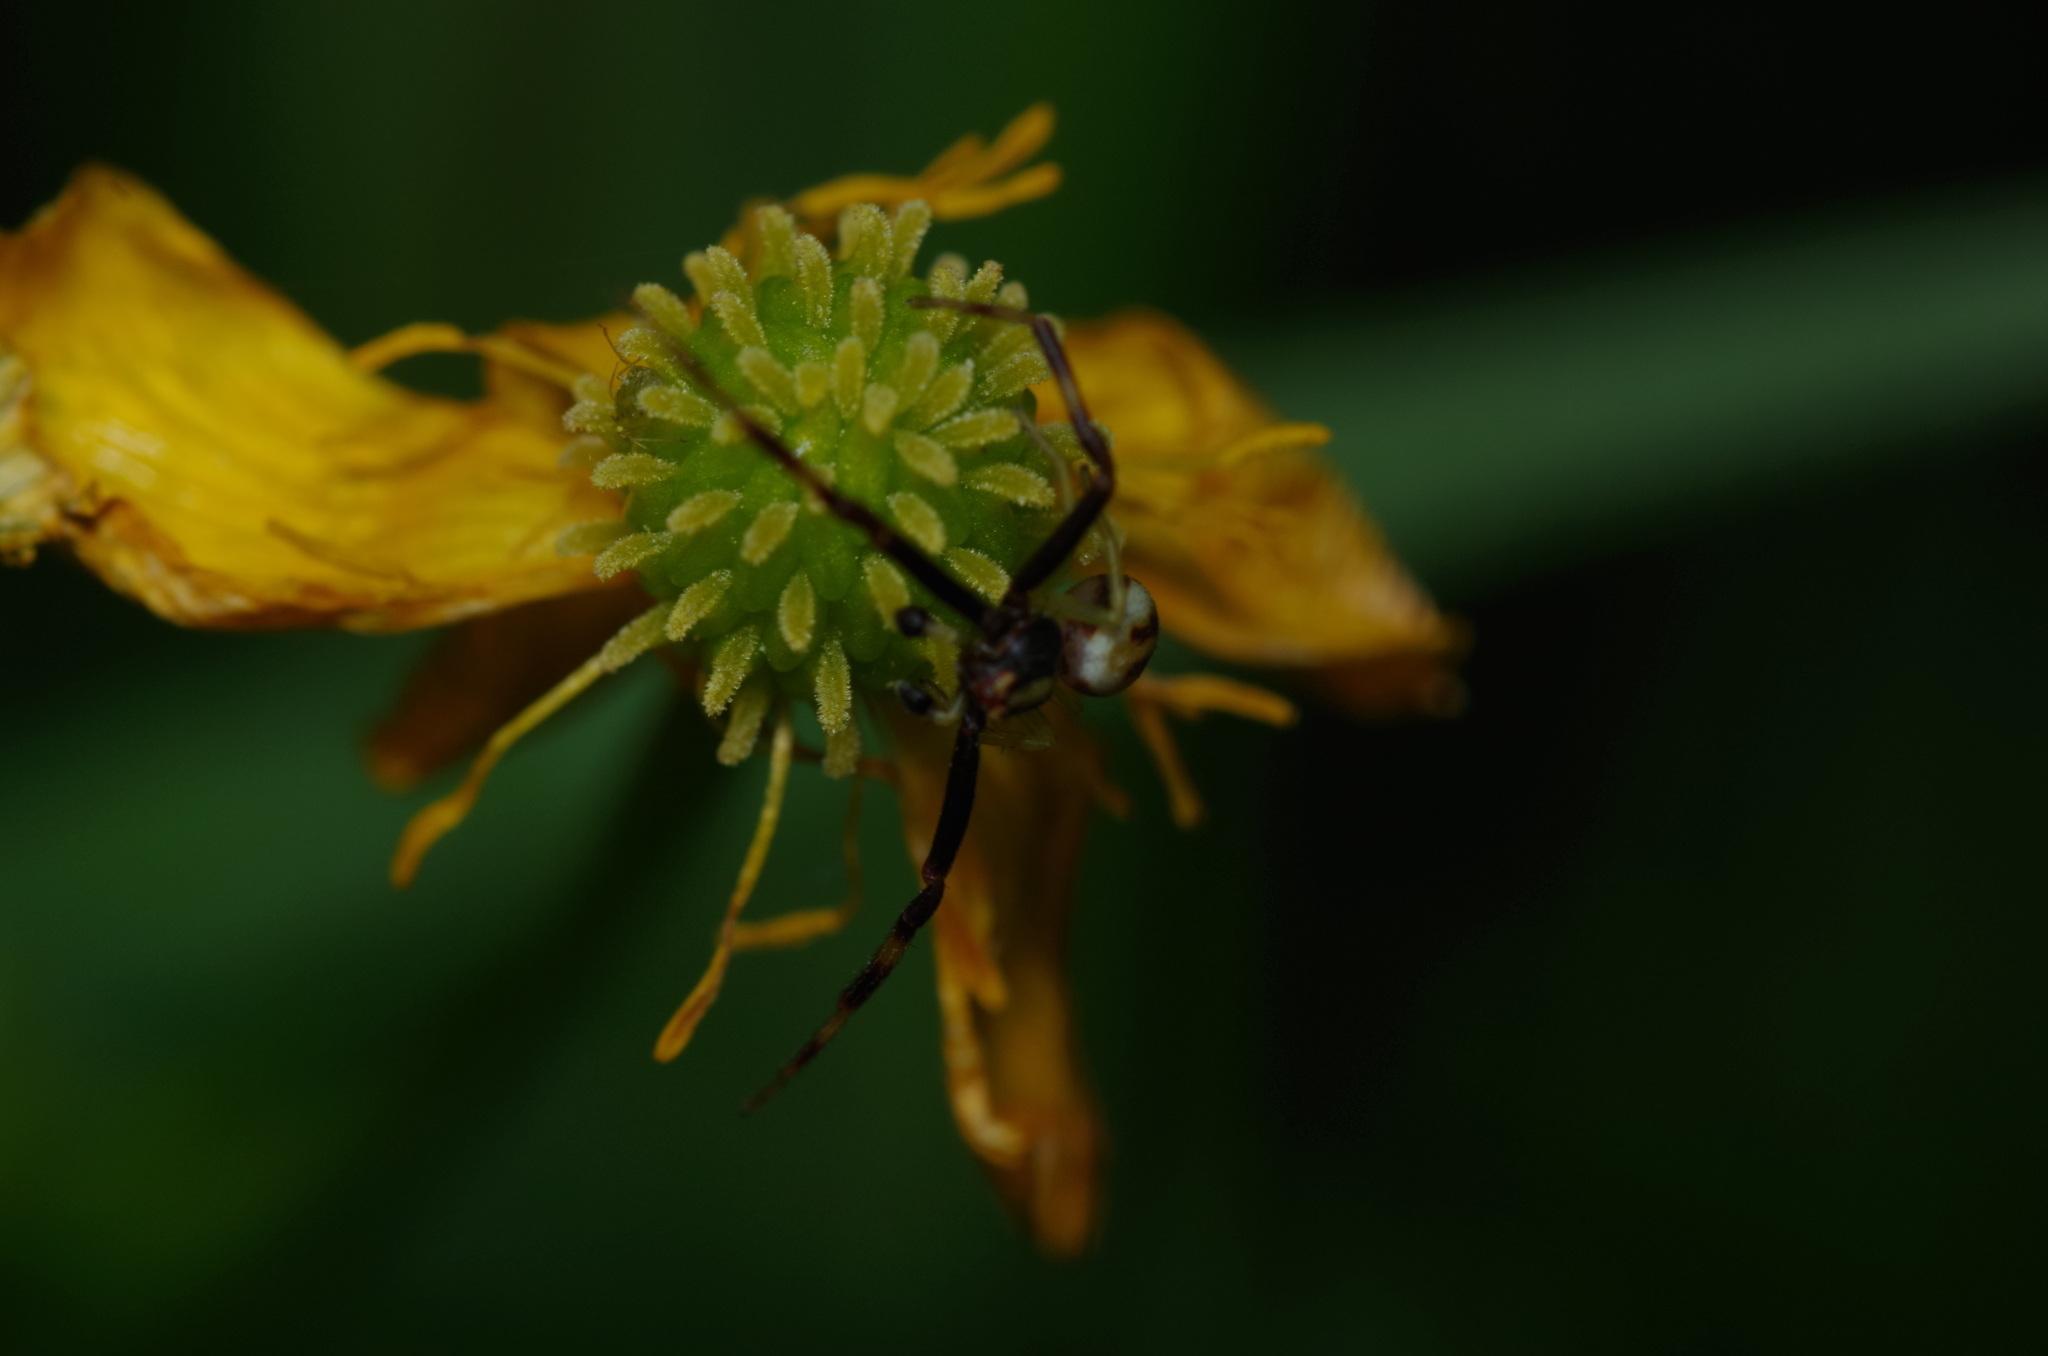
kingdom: Animalia
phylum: Arthropoda
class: Arachnida
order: Araneae
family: Thomisidae
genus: Misumena
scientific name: Misumena vatia
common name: Goldenrod crab spider
